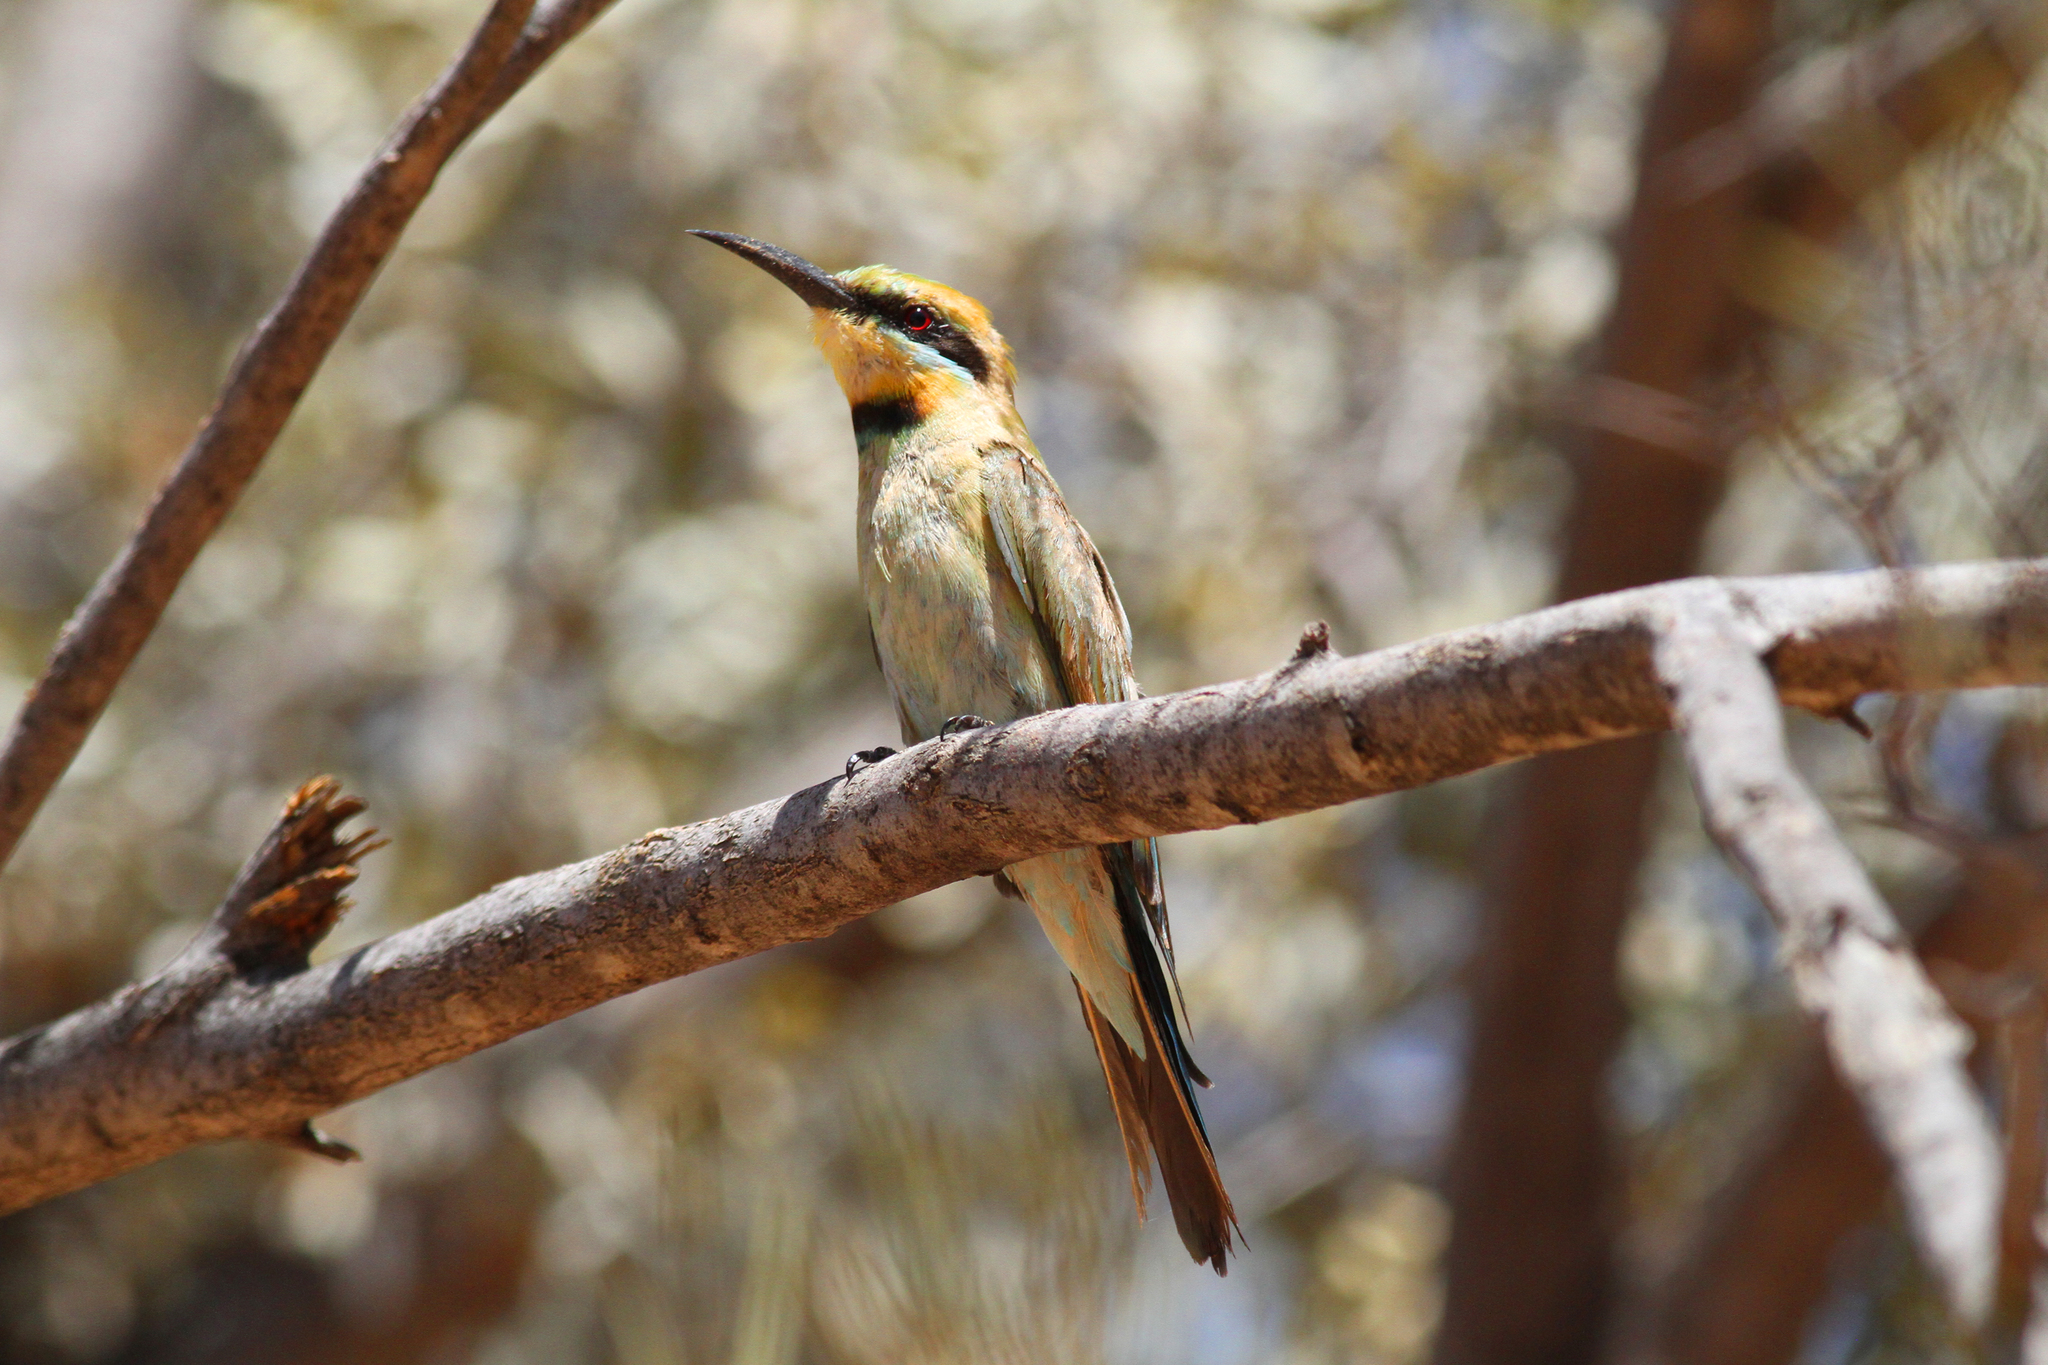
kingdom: Animalia
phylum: Chordata
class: Aves
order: Coraciiformes
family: Meropidae
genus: Merops
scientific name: Merops ornatus
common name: Rainbow bee-eater
